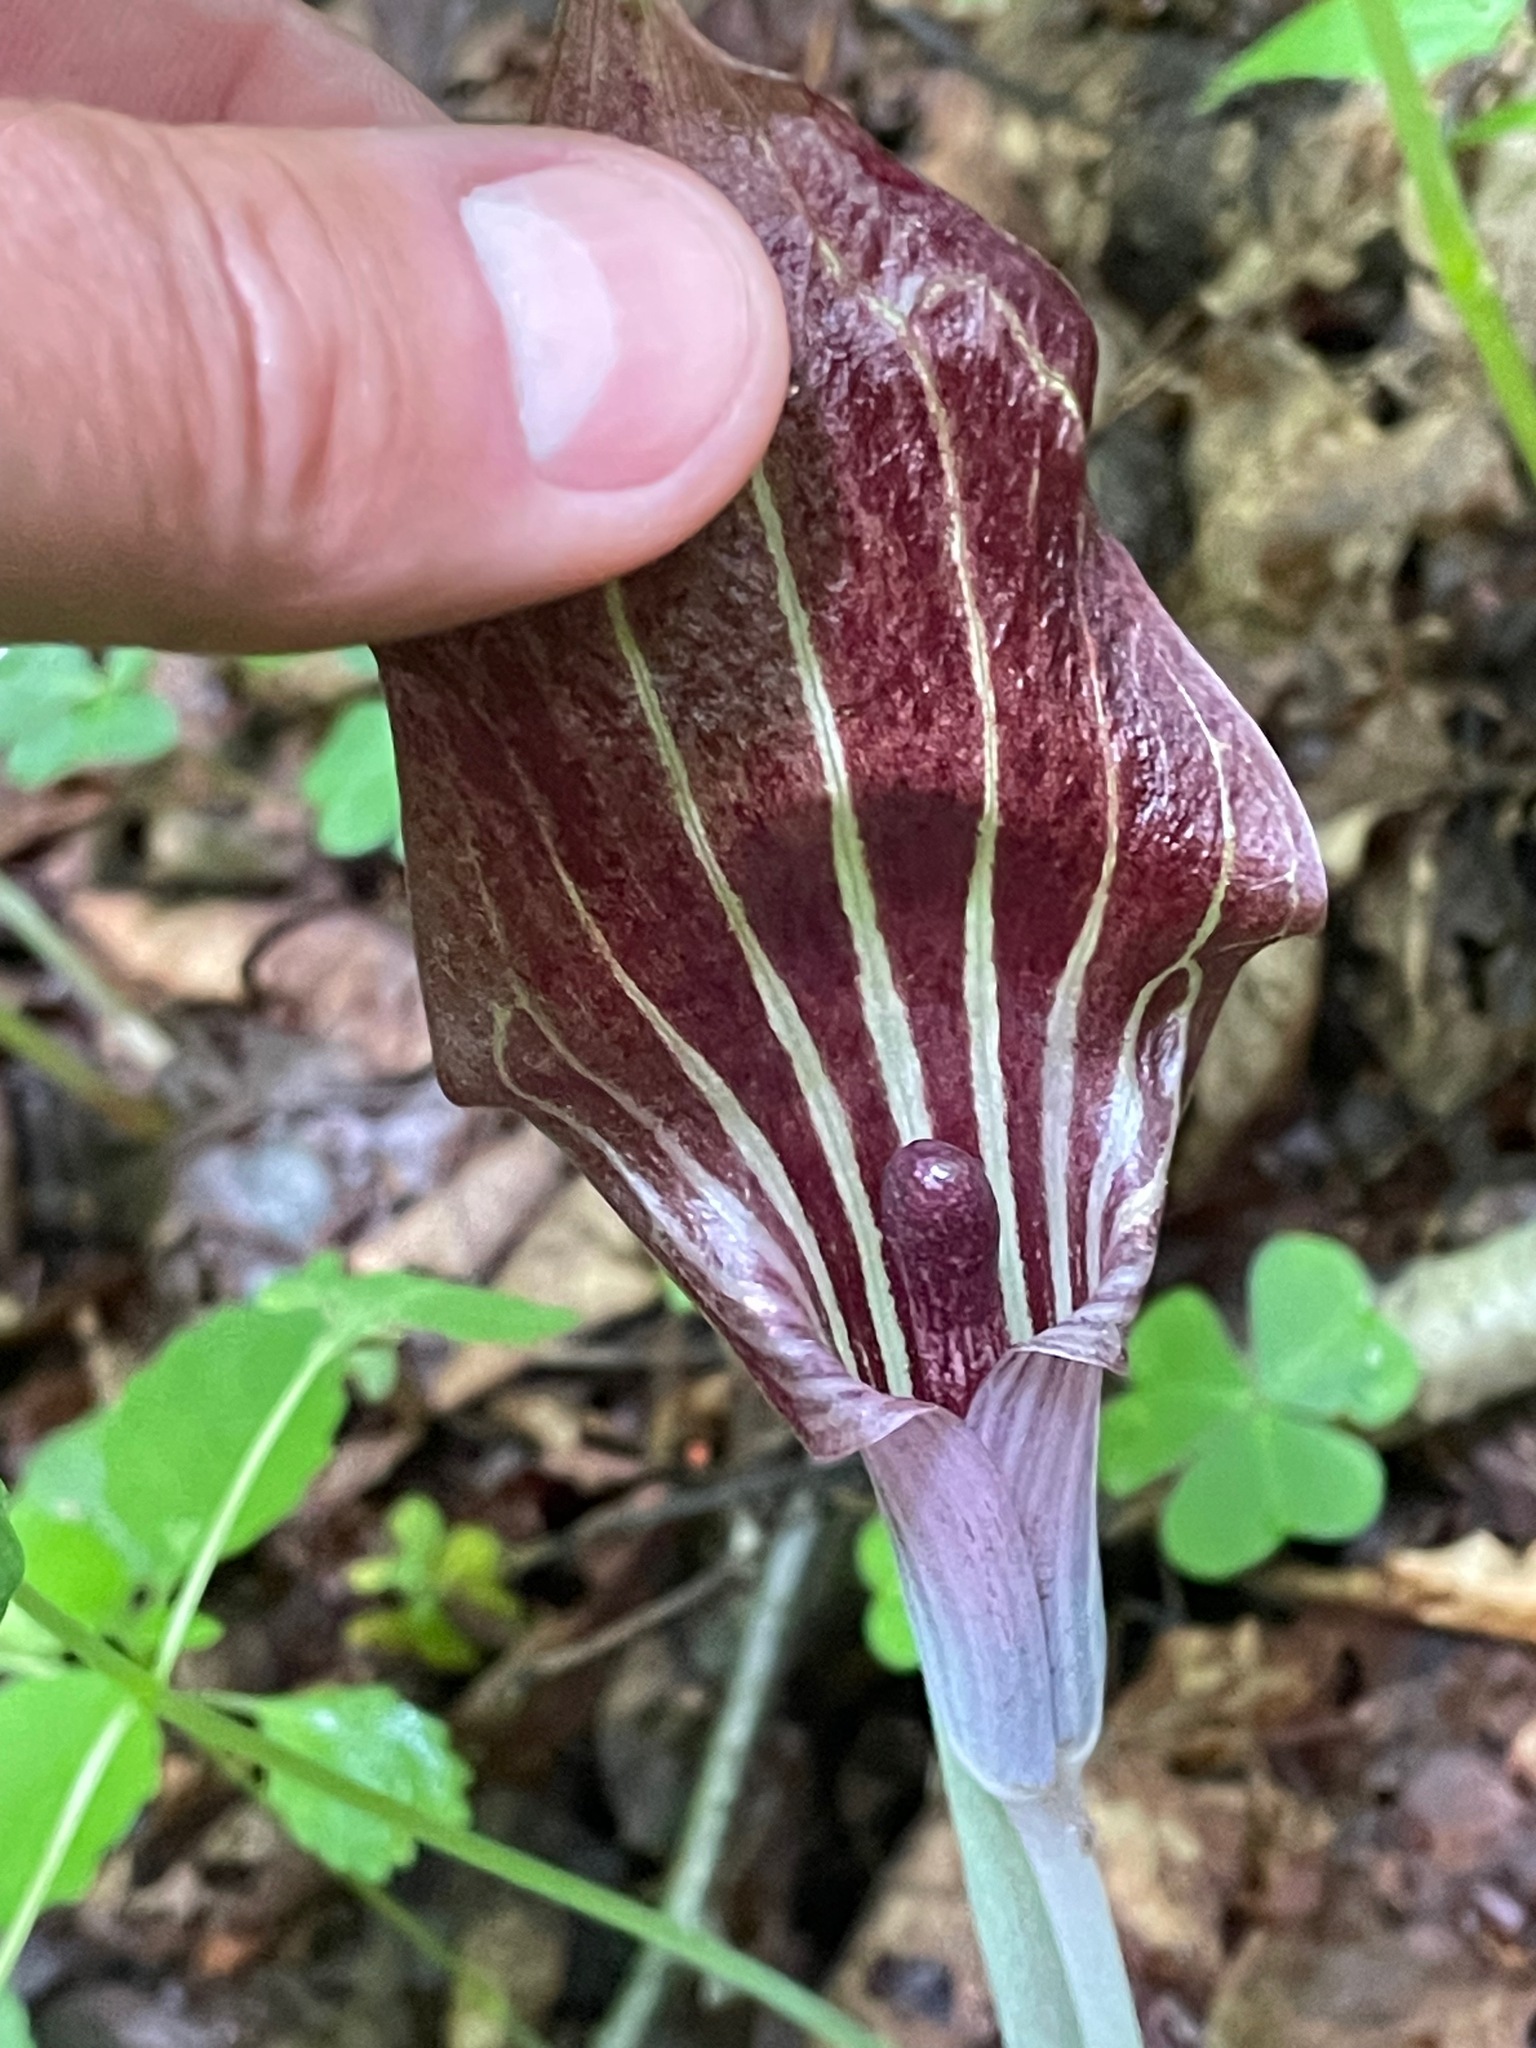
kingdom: Plantae
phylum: Tracheophyta
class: Liliopsida
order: Alismatales
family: Araceae
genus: Arisaema
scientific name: Arisaema triphyllum
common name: Jack-in-the-pulpit
